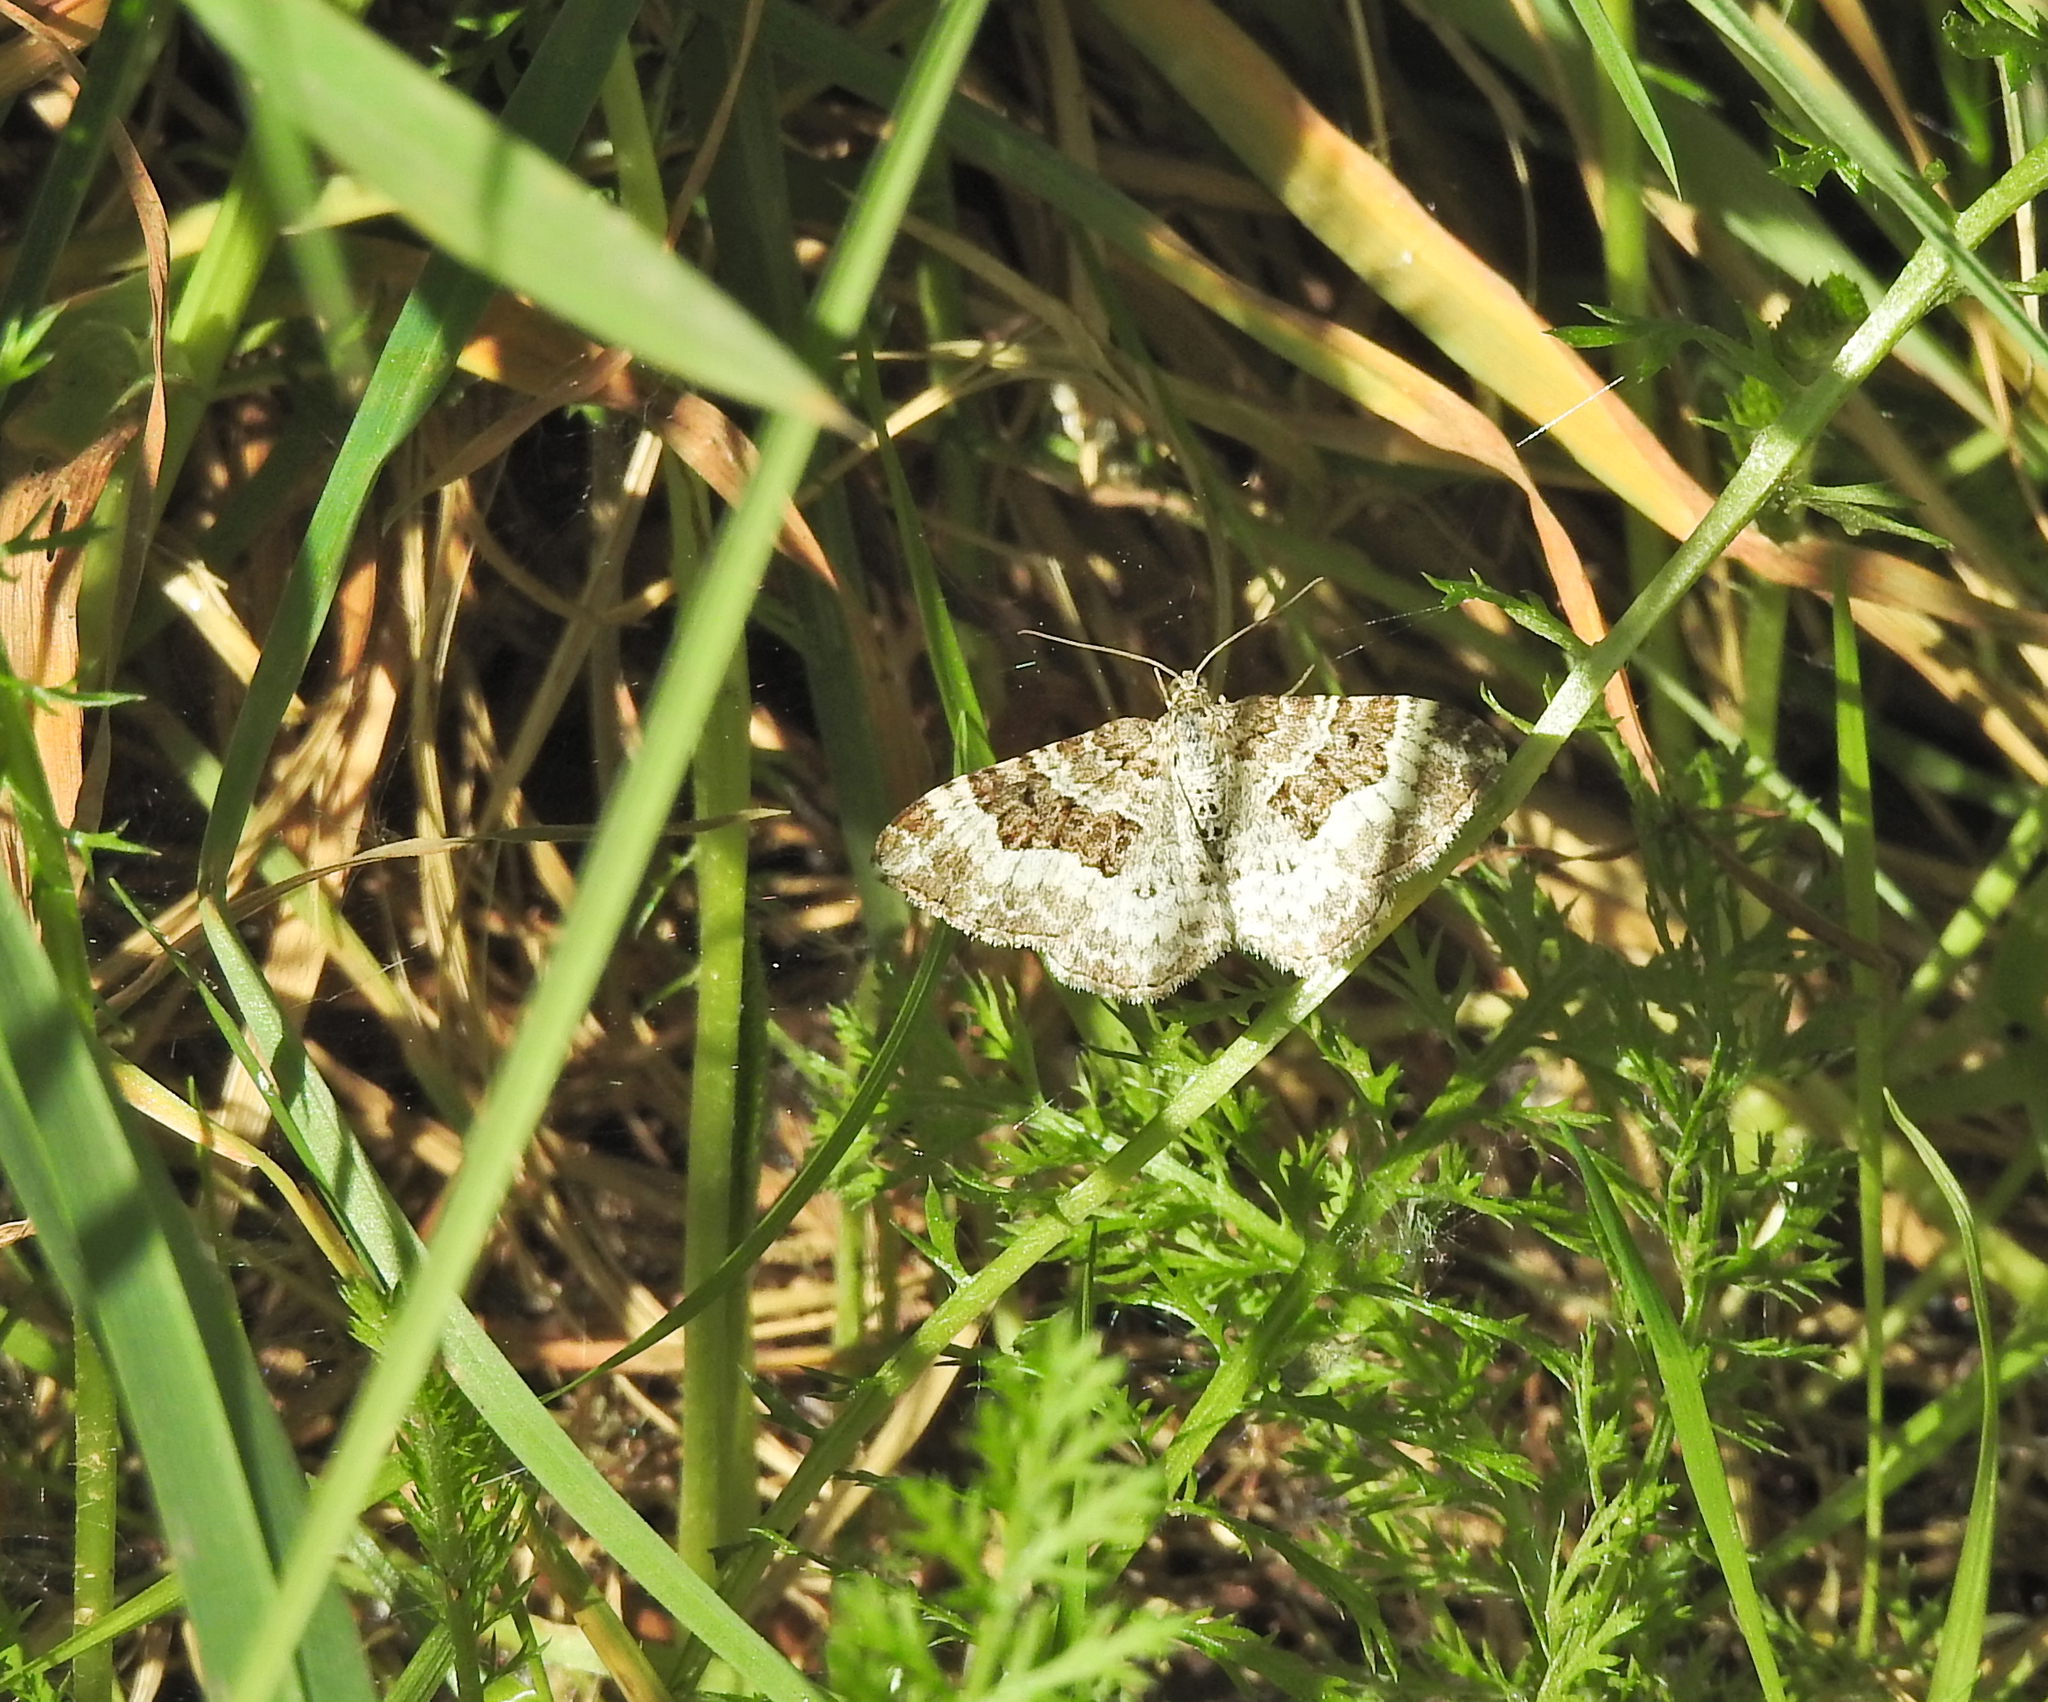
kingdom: Animalia
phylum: Arthropoda
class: Insecta
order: Lepidoptera
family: Geometridae
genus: Epirrhoe
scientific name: Epirrhoe alternata
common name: Common carpet
